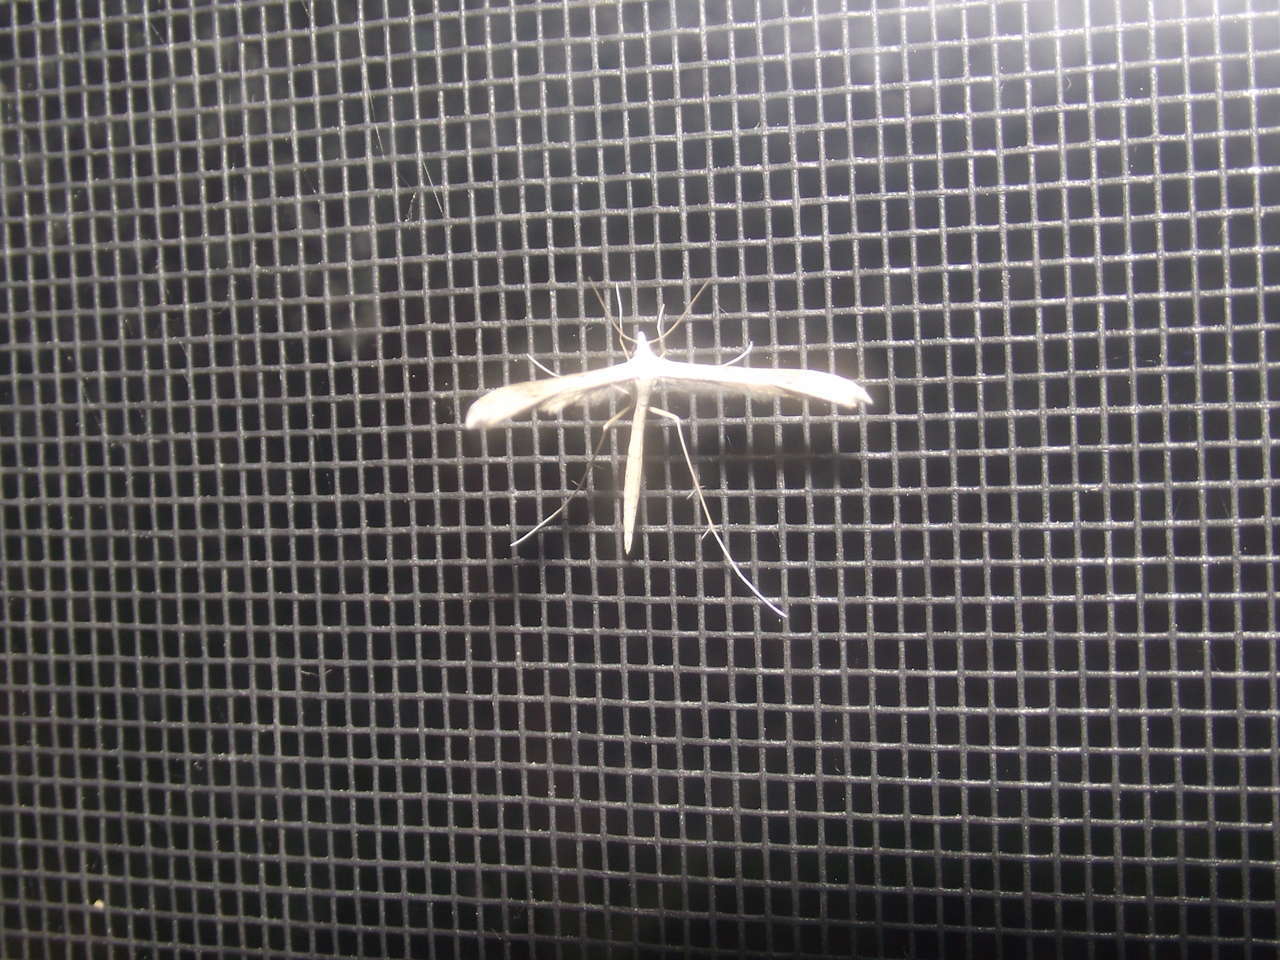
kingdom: Animalia
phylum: Arthropoda
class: Insecta
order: Lepidoptera
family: Pterophoridae
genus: Stenoptilia
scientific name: Stenoptilia zophodactylus
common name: Dowdy plume
